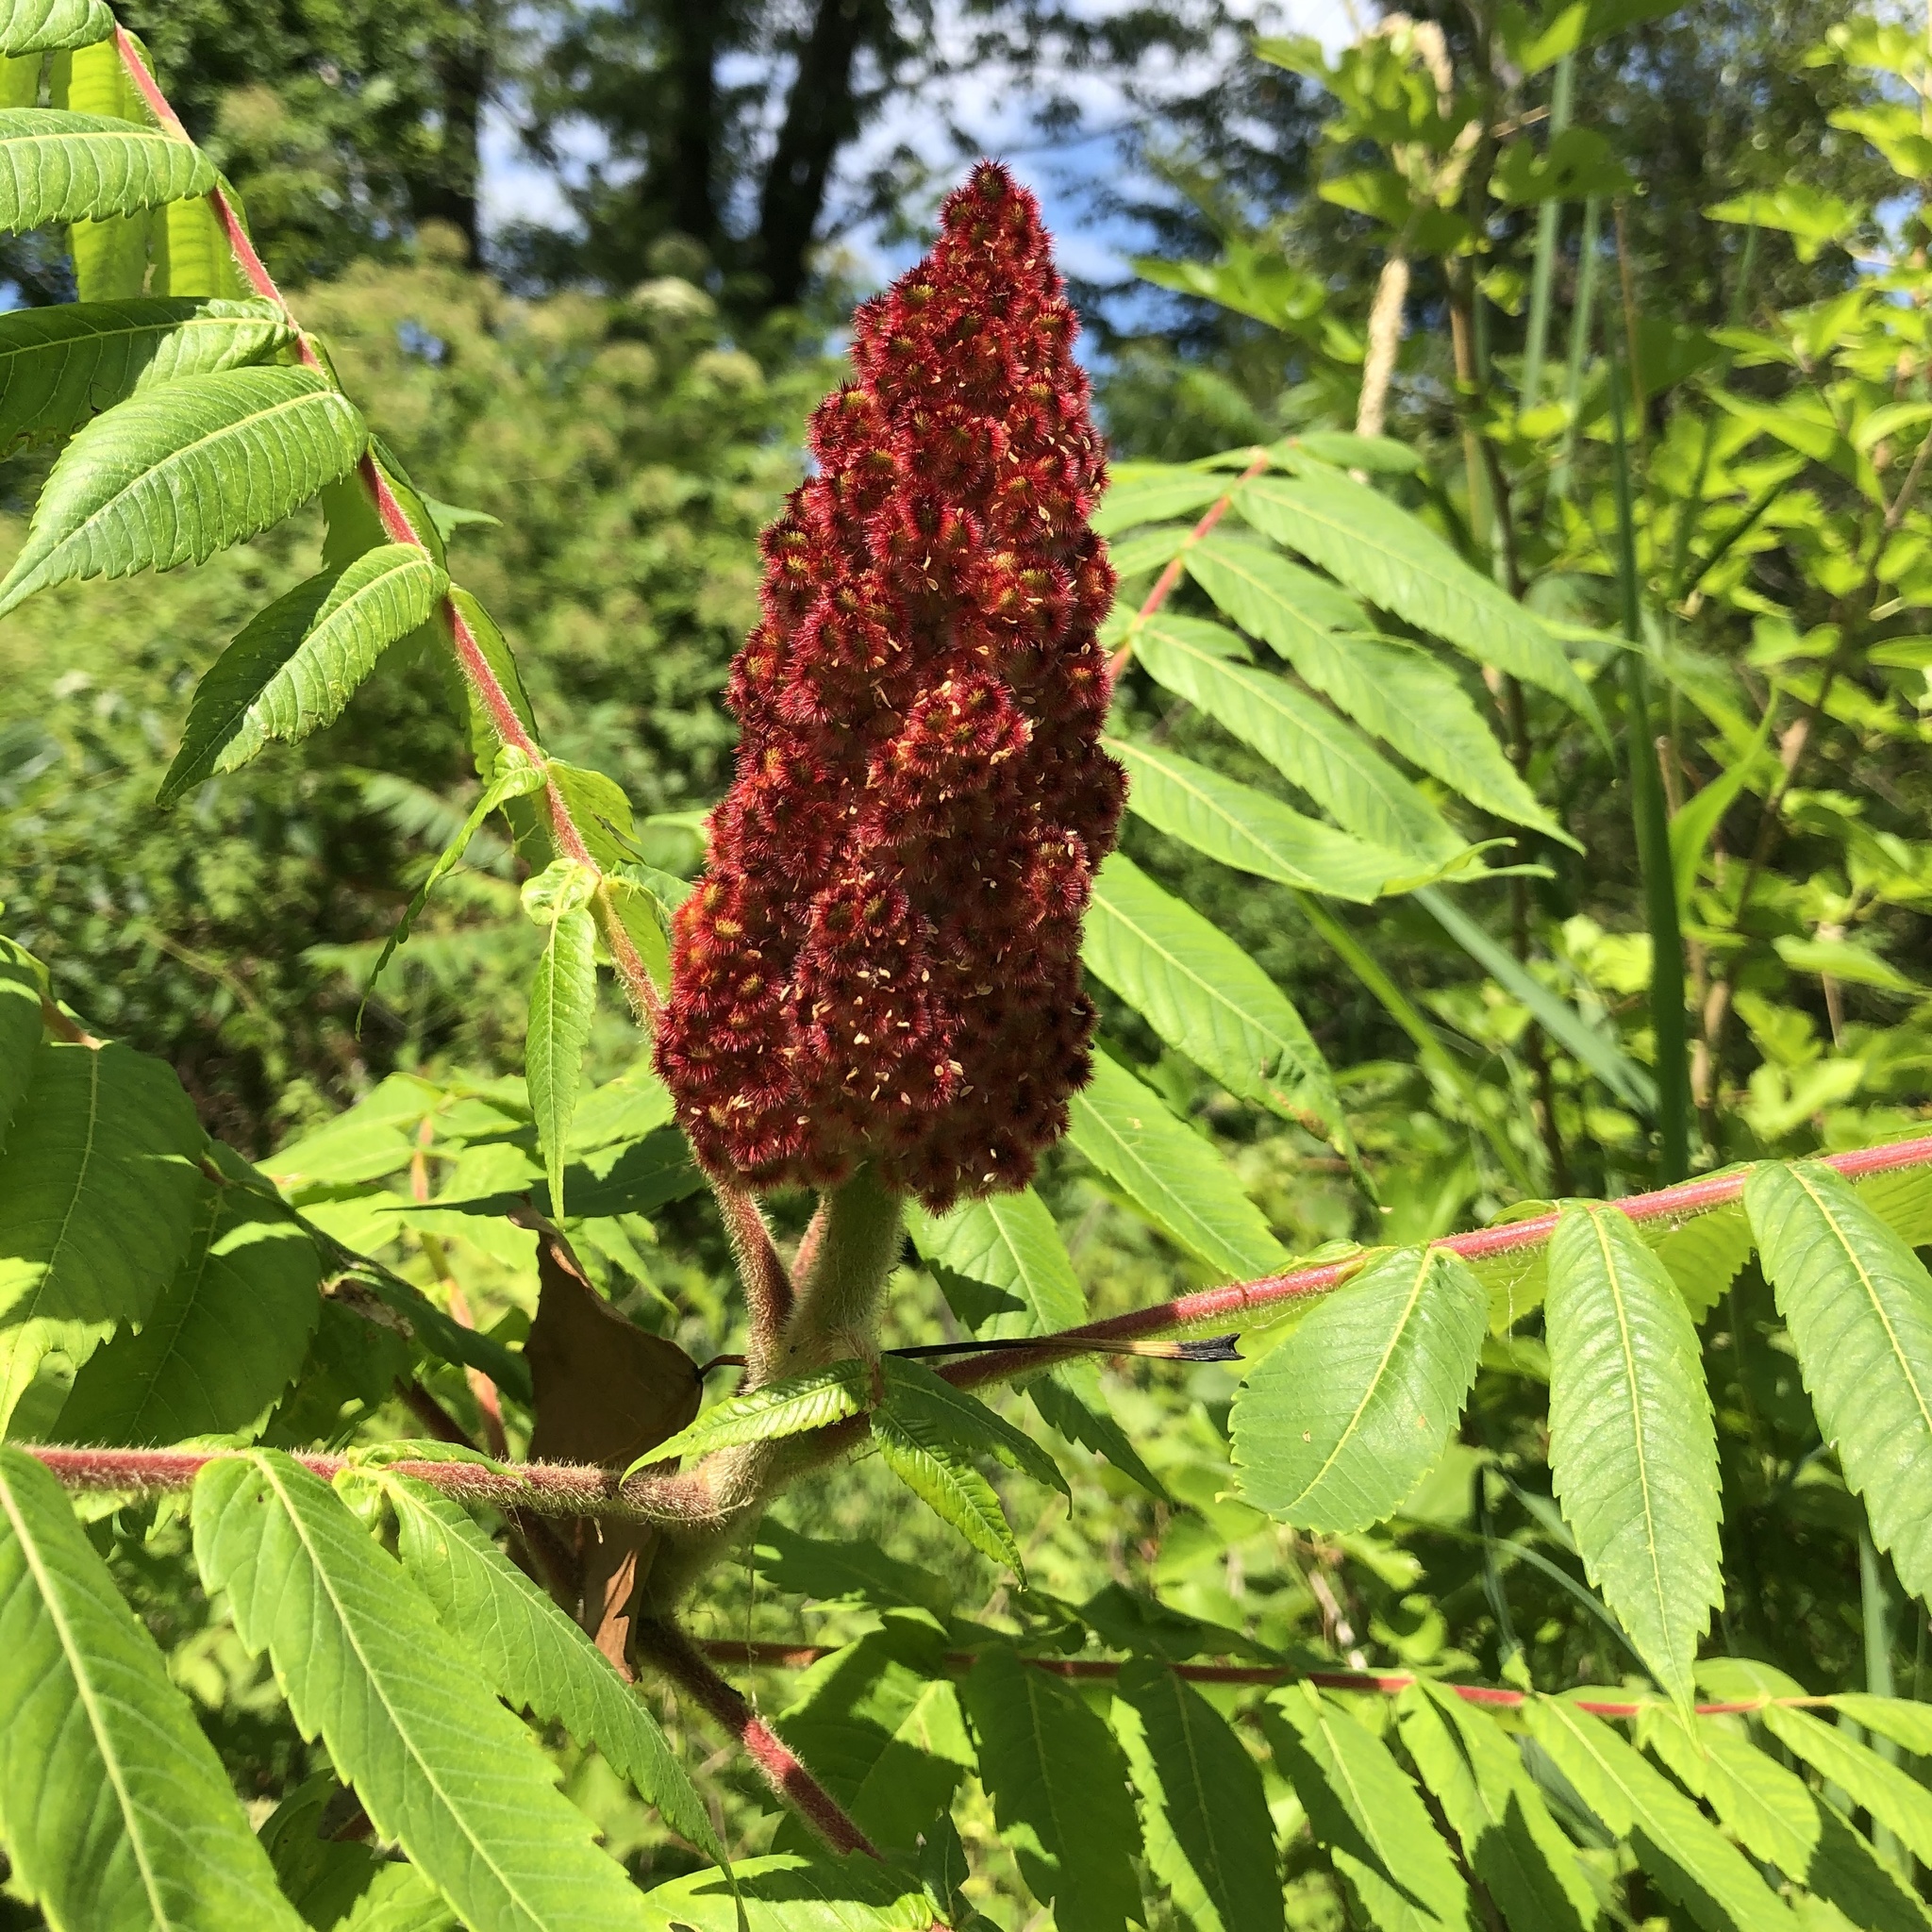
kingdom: Plantae
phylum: Tracheophyta
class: Magnoliopsida
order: Sapindales
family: Anacardiaceae
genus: Rhus
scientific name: Rhus typhina
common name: Staghorn sumac
